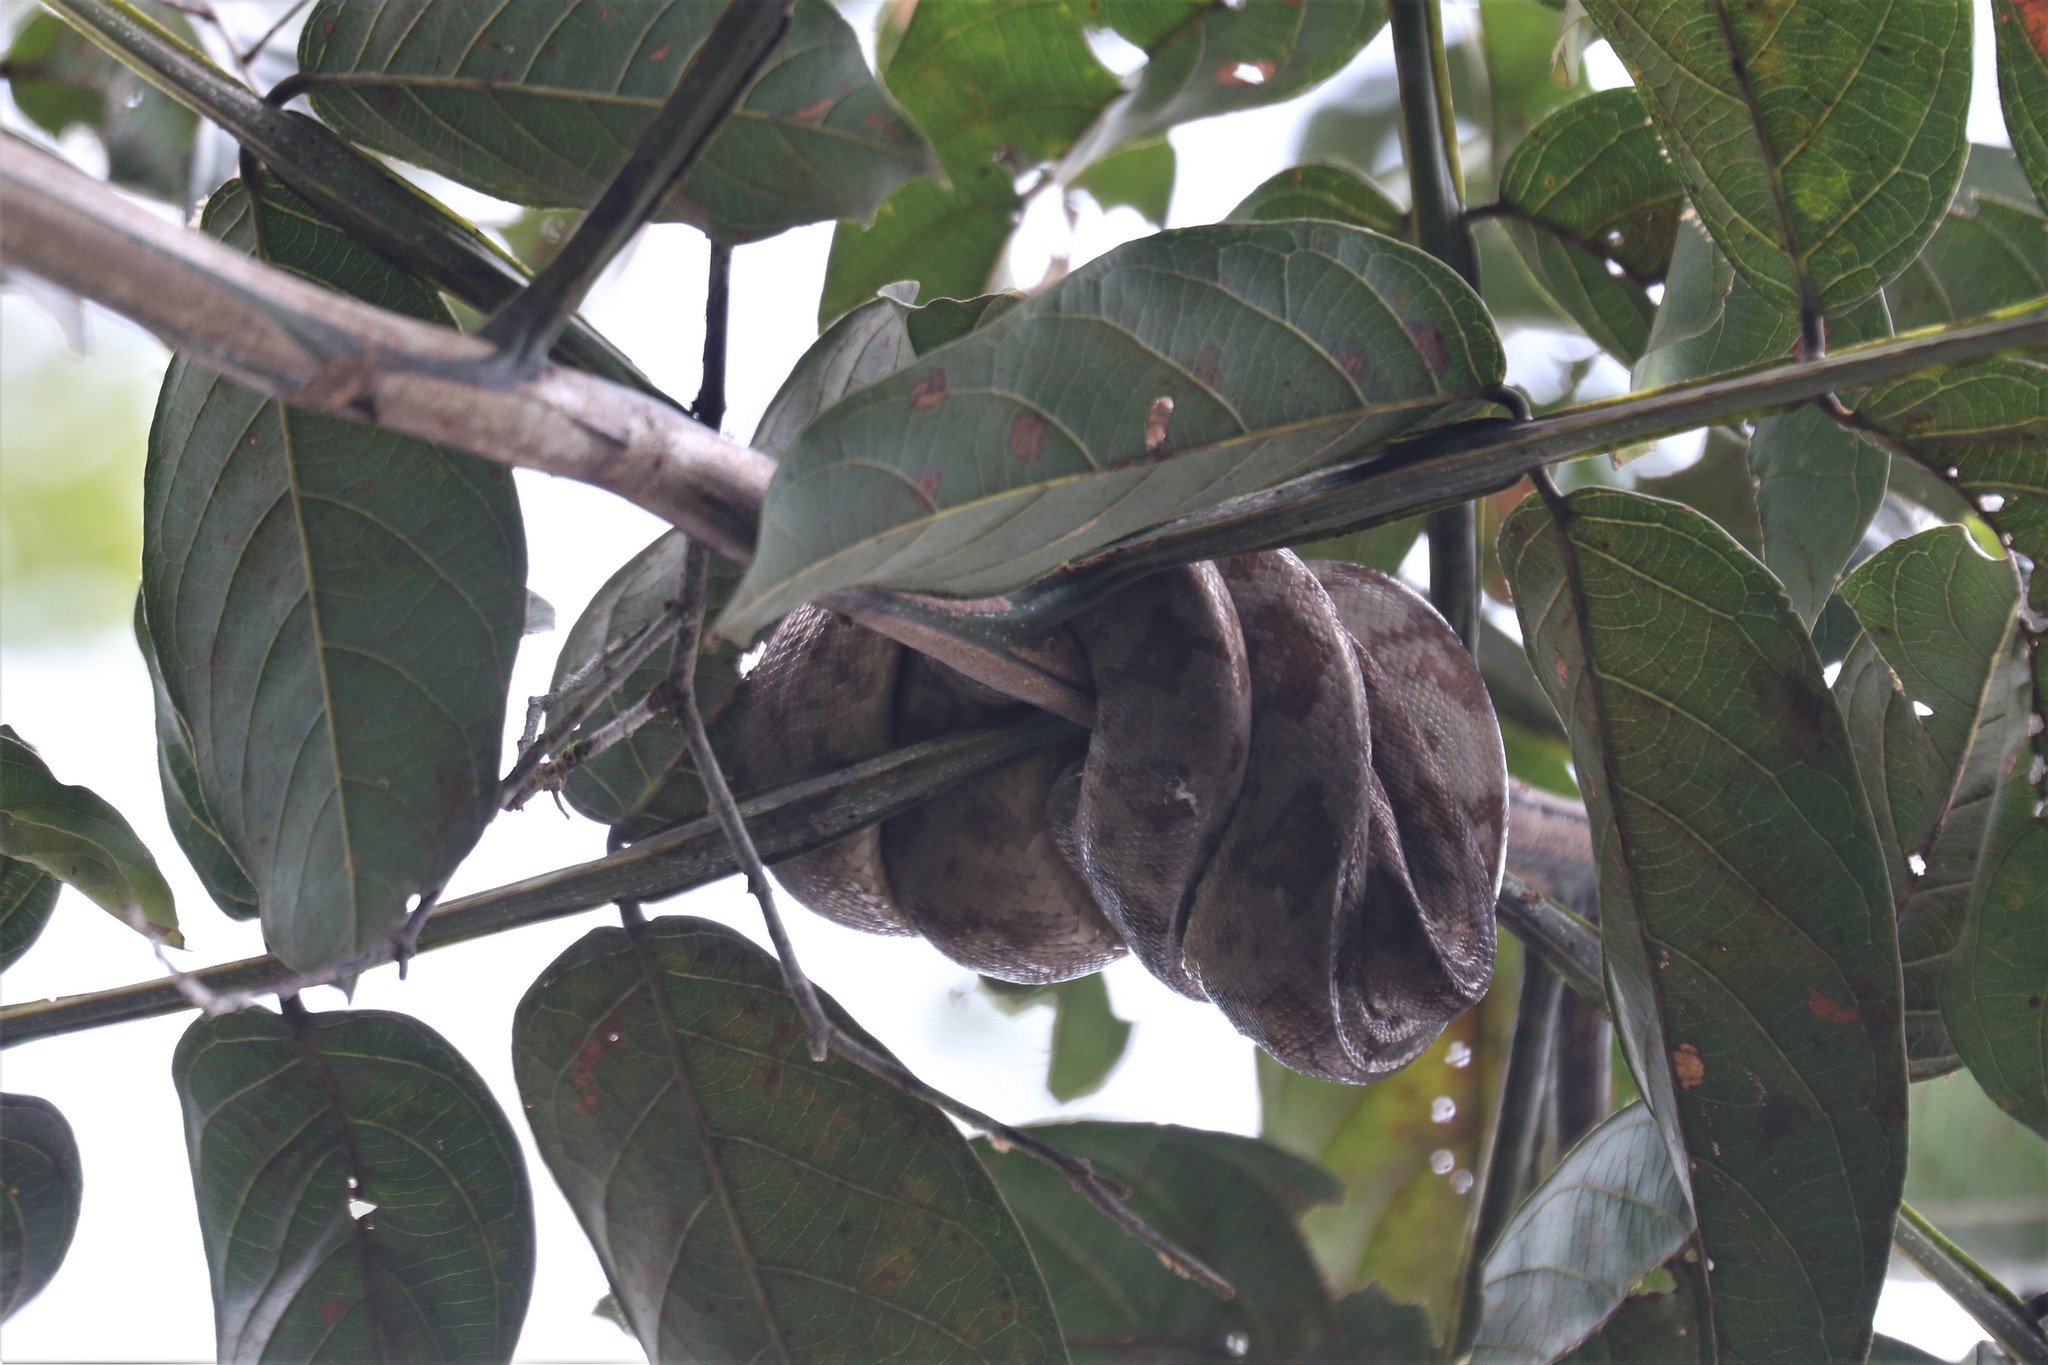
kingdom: Animalia
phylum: Chordata
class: Squamata
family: Boidae
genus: Corallus
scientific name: Corallus hortulana
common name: Garden tree boa
